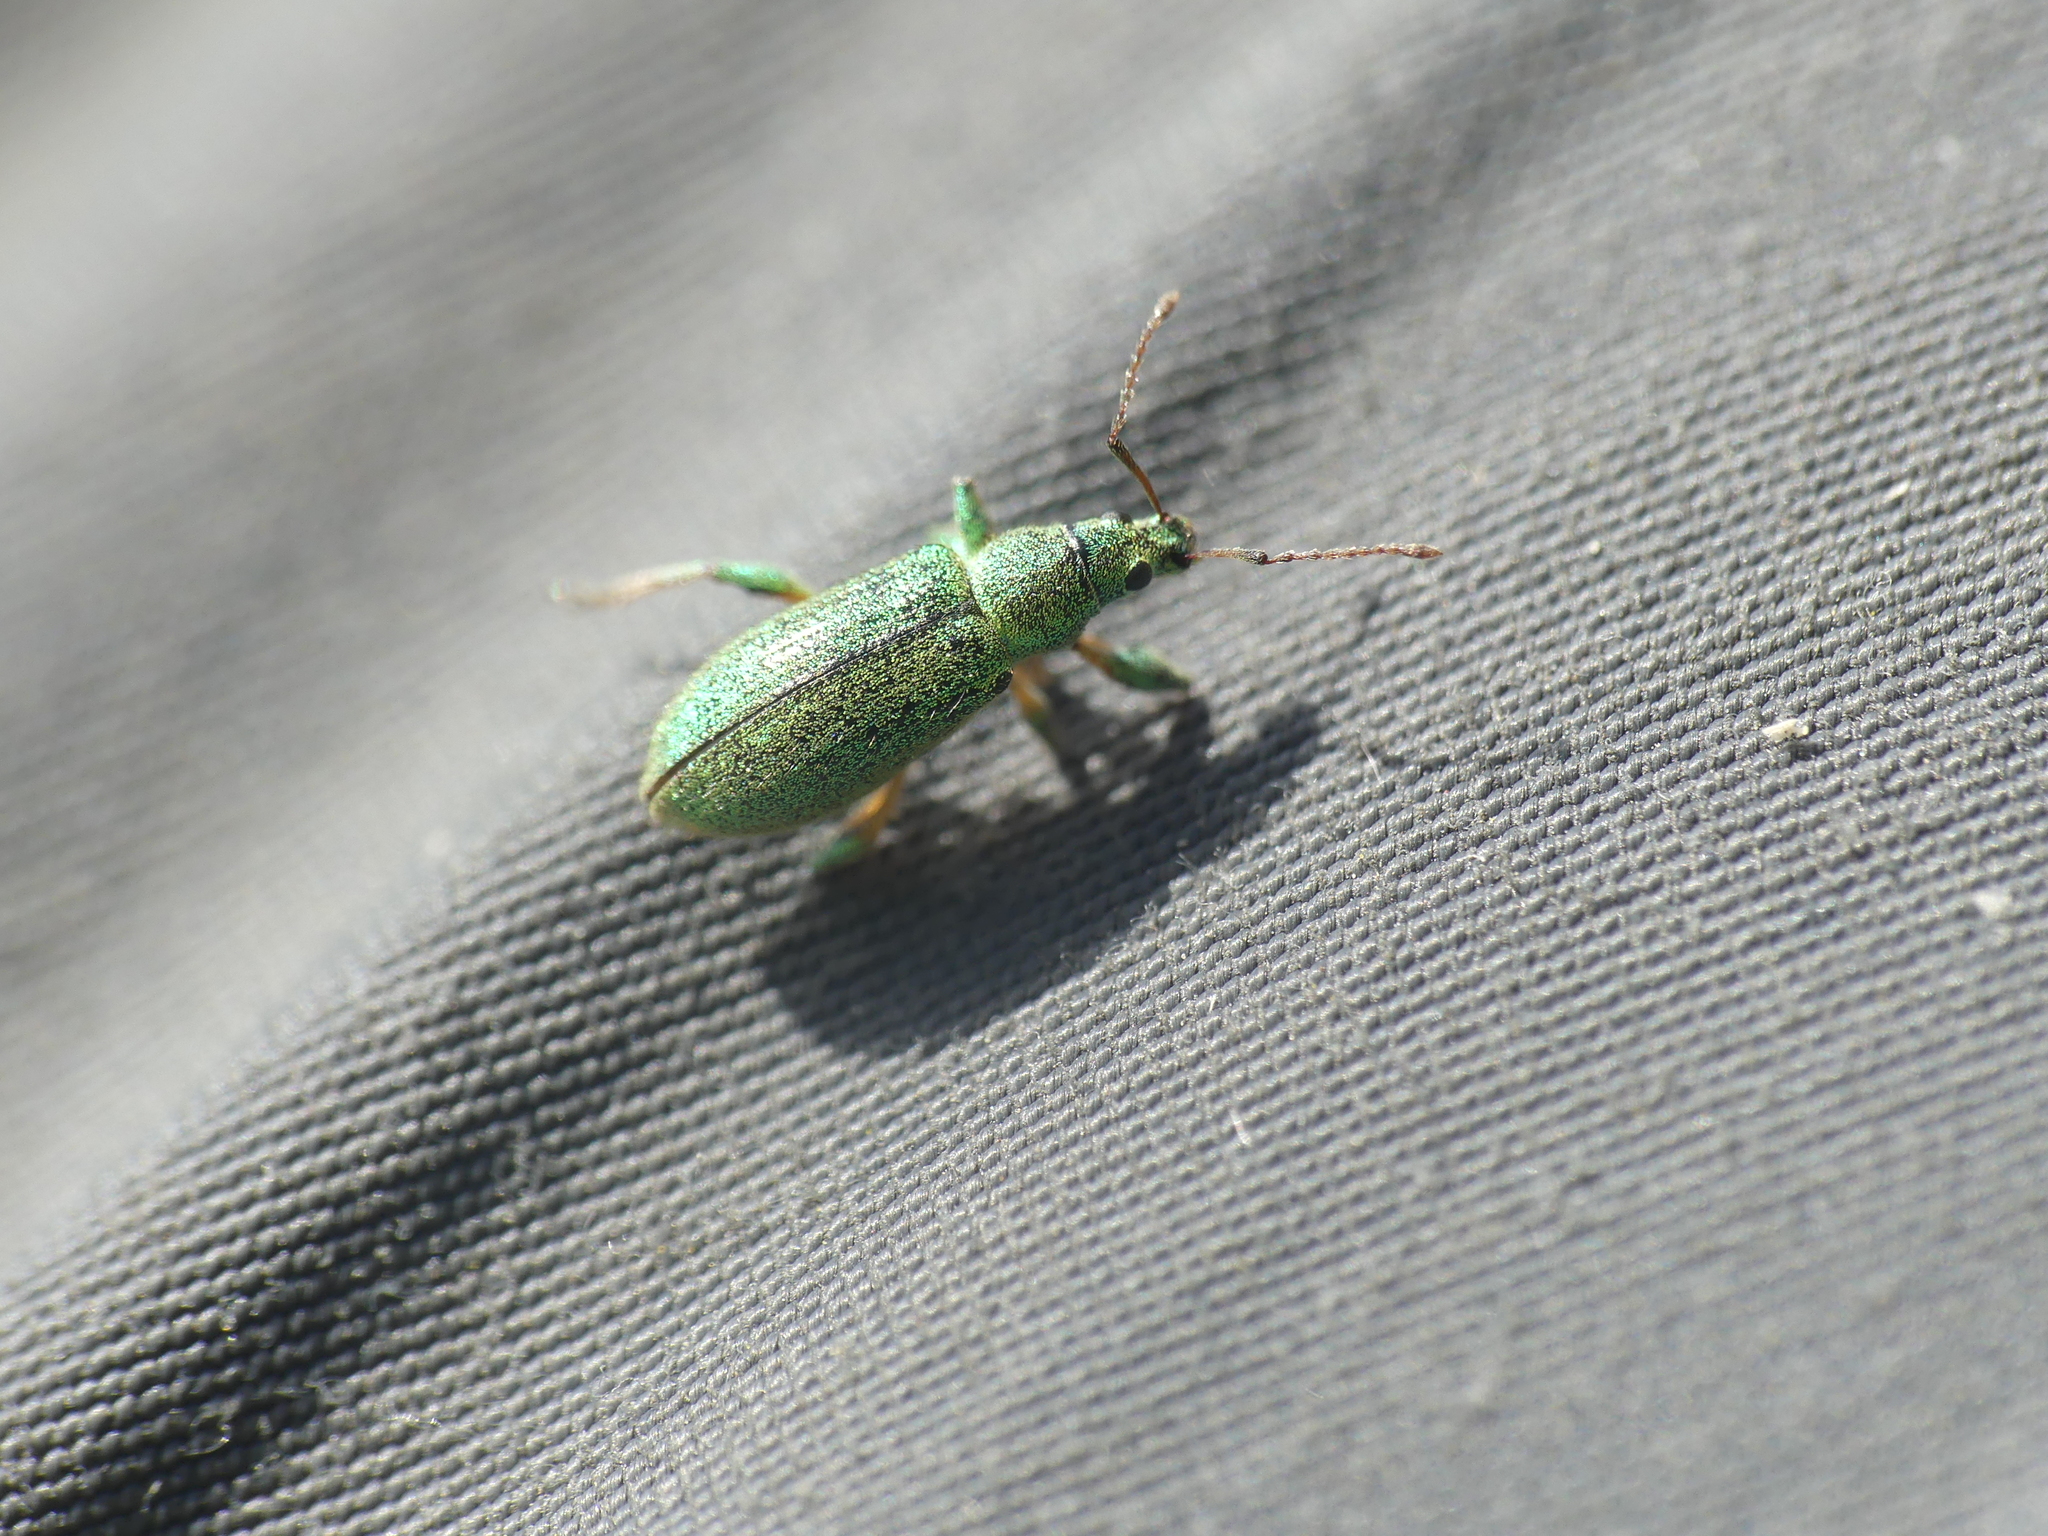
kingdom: Animalia
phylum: Arthropoda
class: Insecta
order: Coleoptera
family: Curculionidae
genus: Phyllobius
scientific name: Phyllobius arborator
